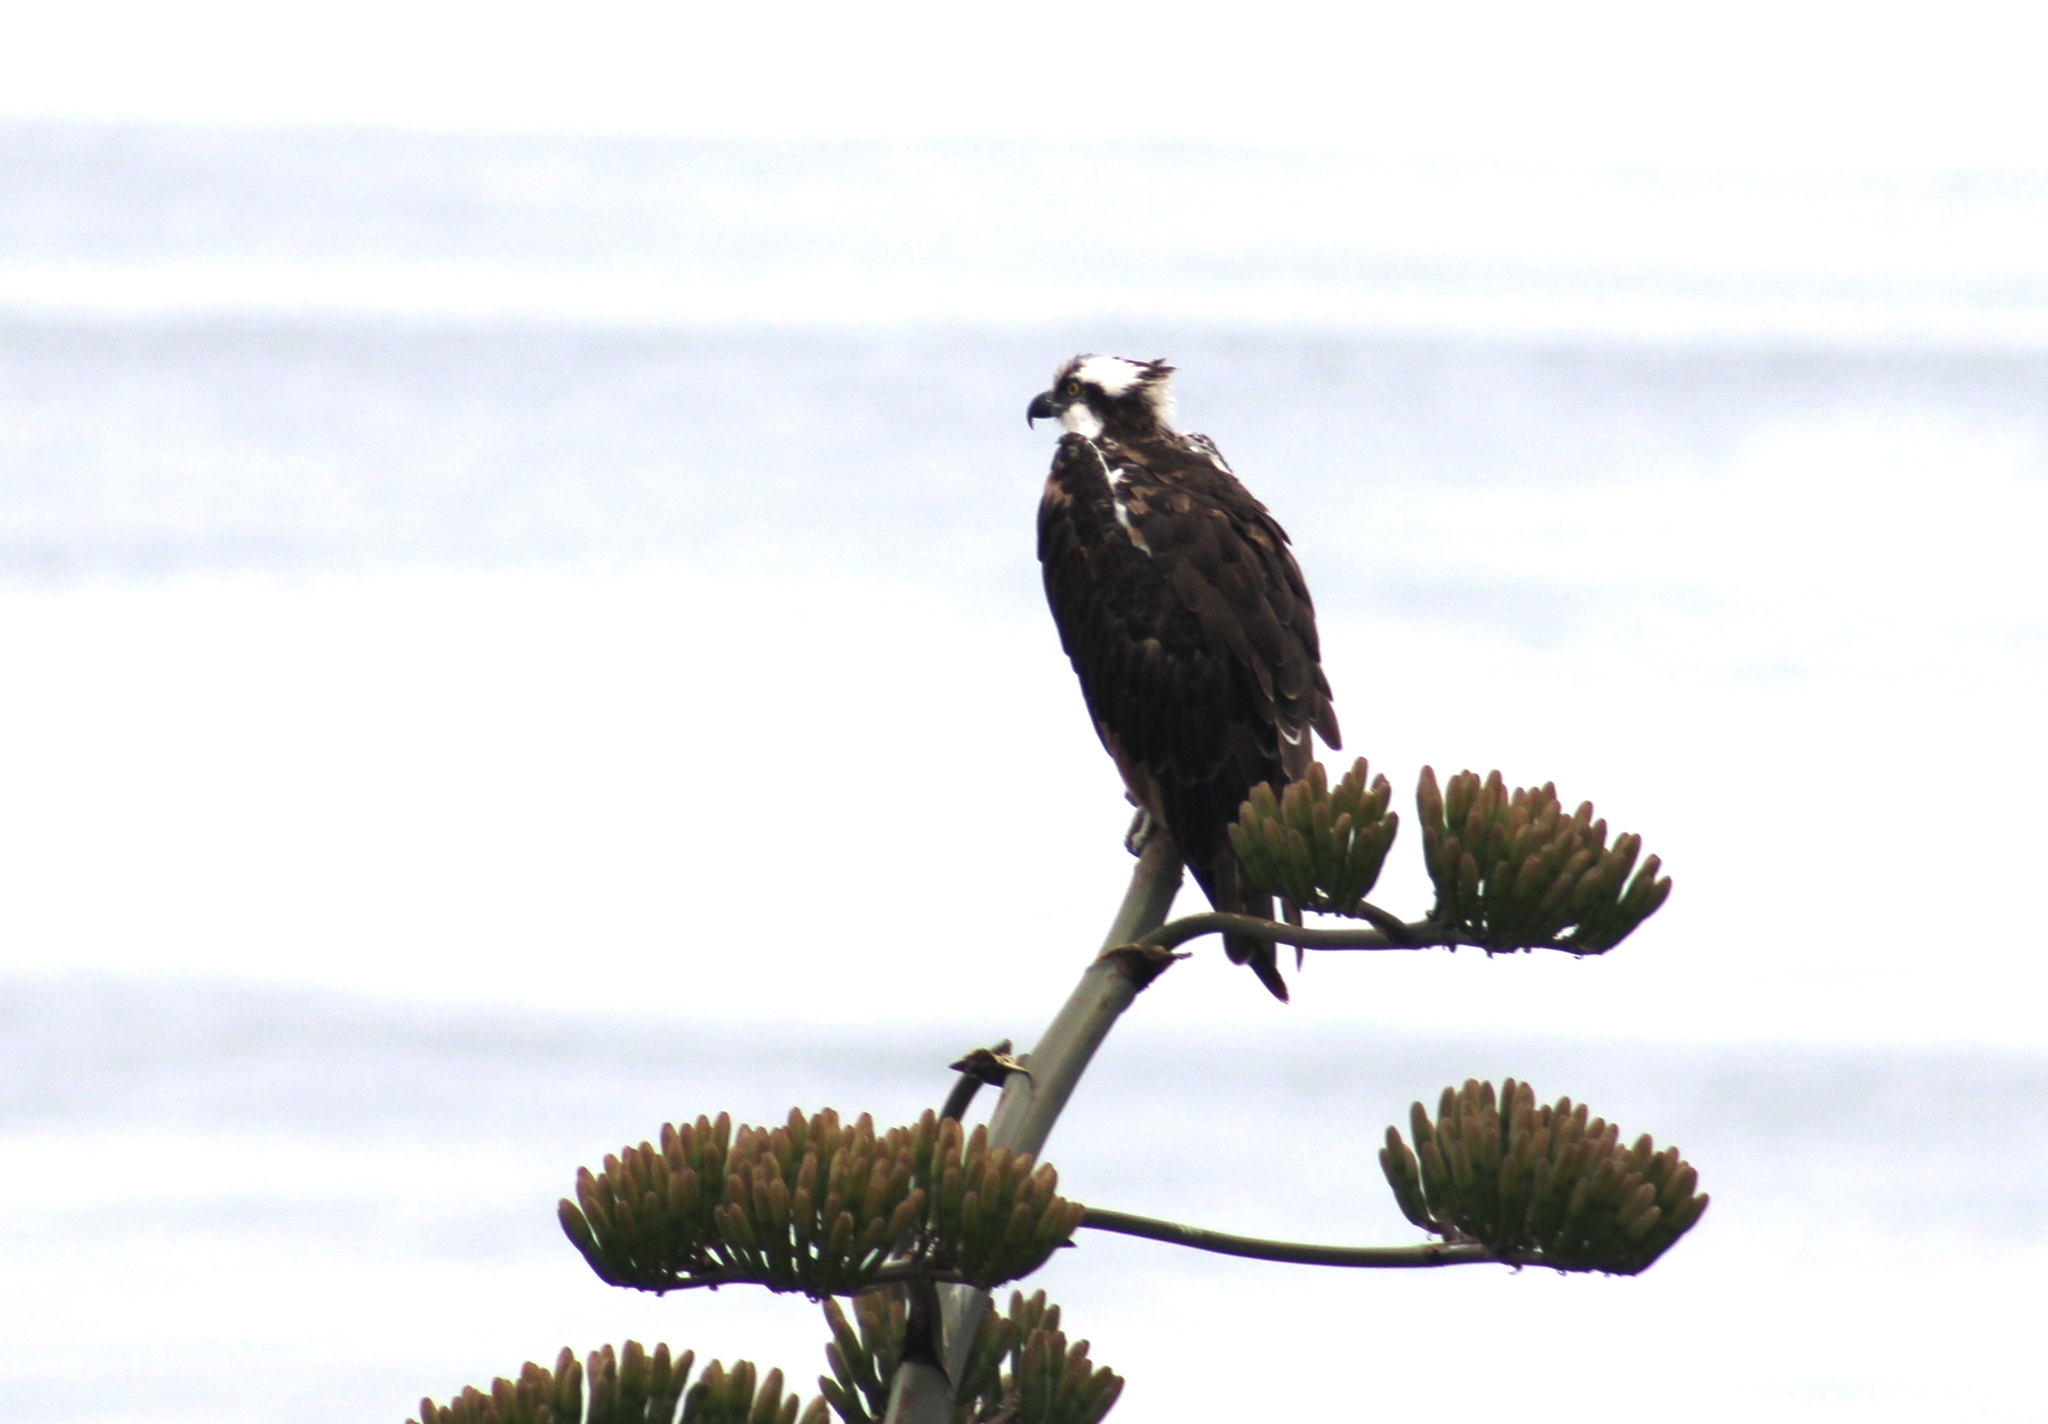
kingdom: Animalia
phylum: Chordata
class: Aves
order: Accipitriformes
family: Pandionidae
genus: Pandion
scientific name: Pandion haliaetus
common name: Osprey
